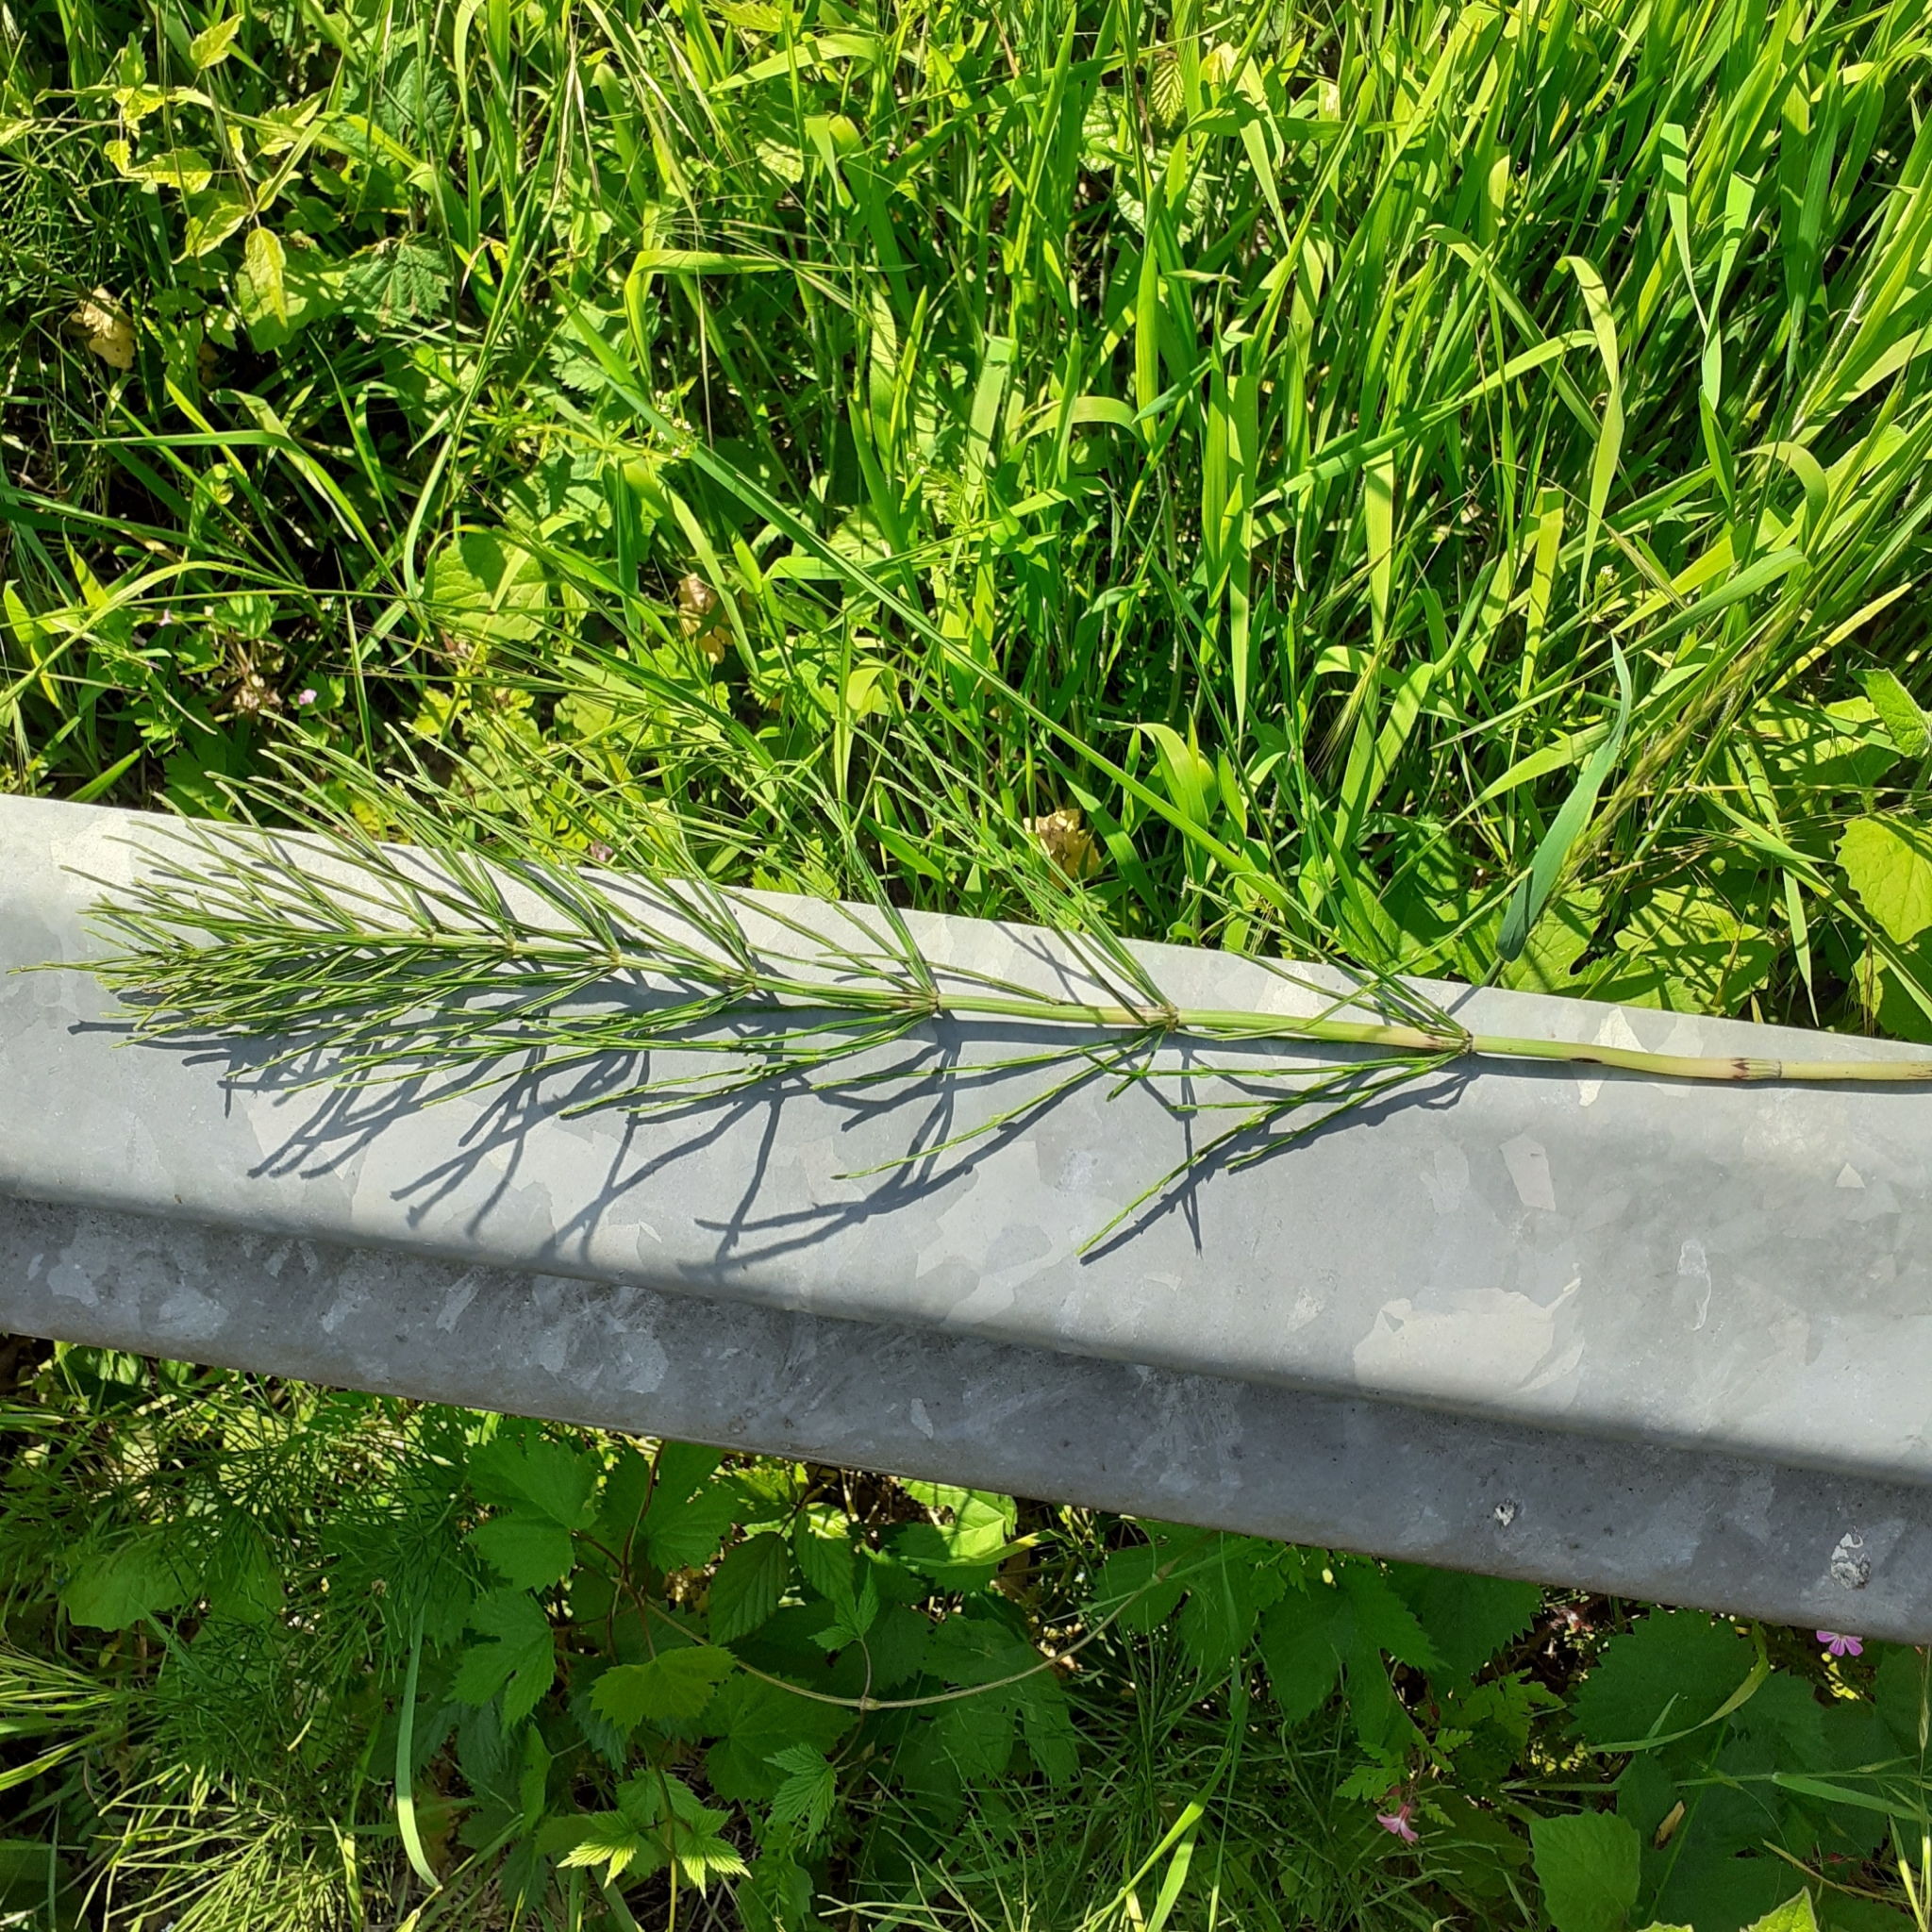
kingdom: Plantae
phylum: Tracheophyta
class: Polypodiopsida
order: Equisetales
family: Equisetaceae
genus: Equisetum
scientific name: Equisetum arvense
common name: Field horsetail
